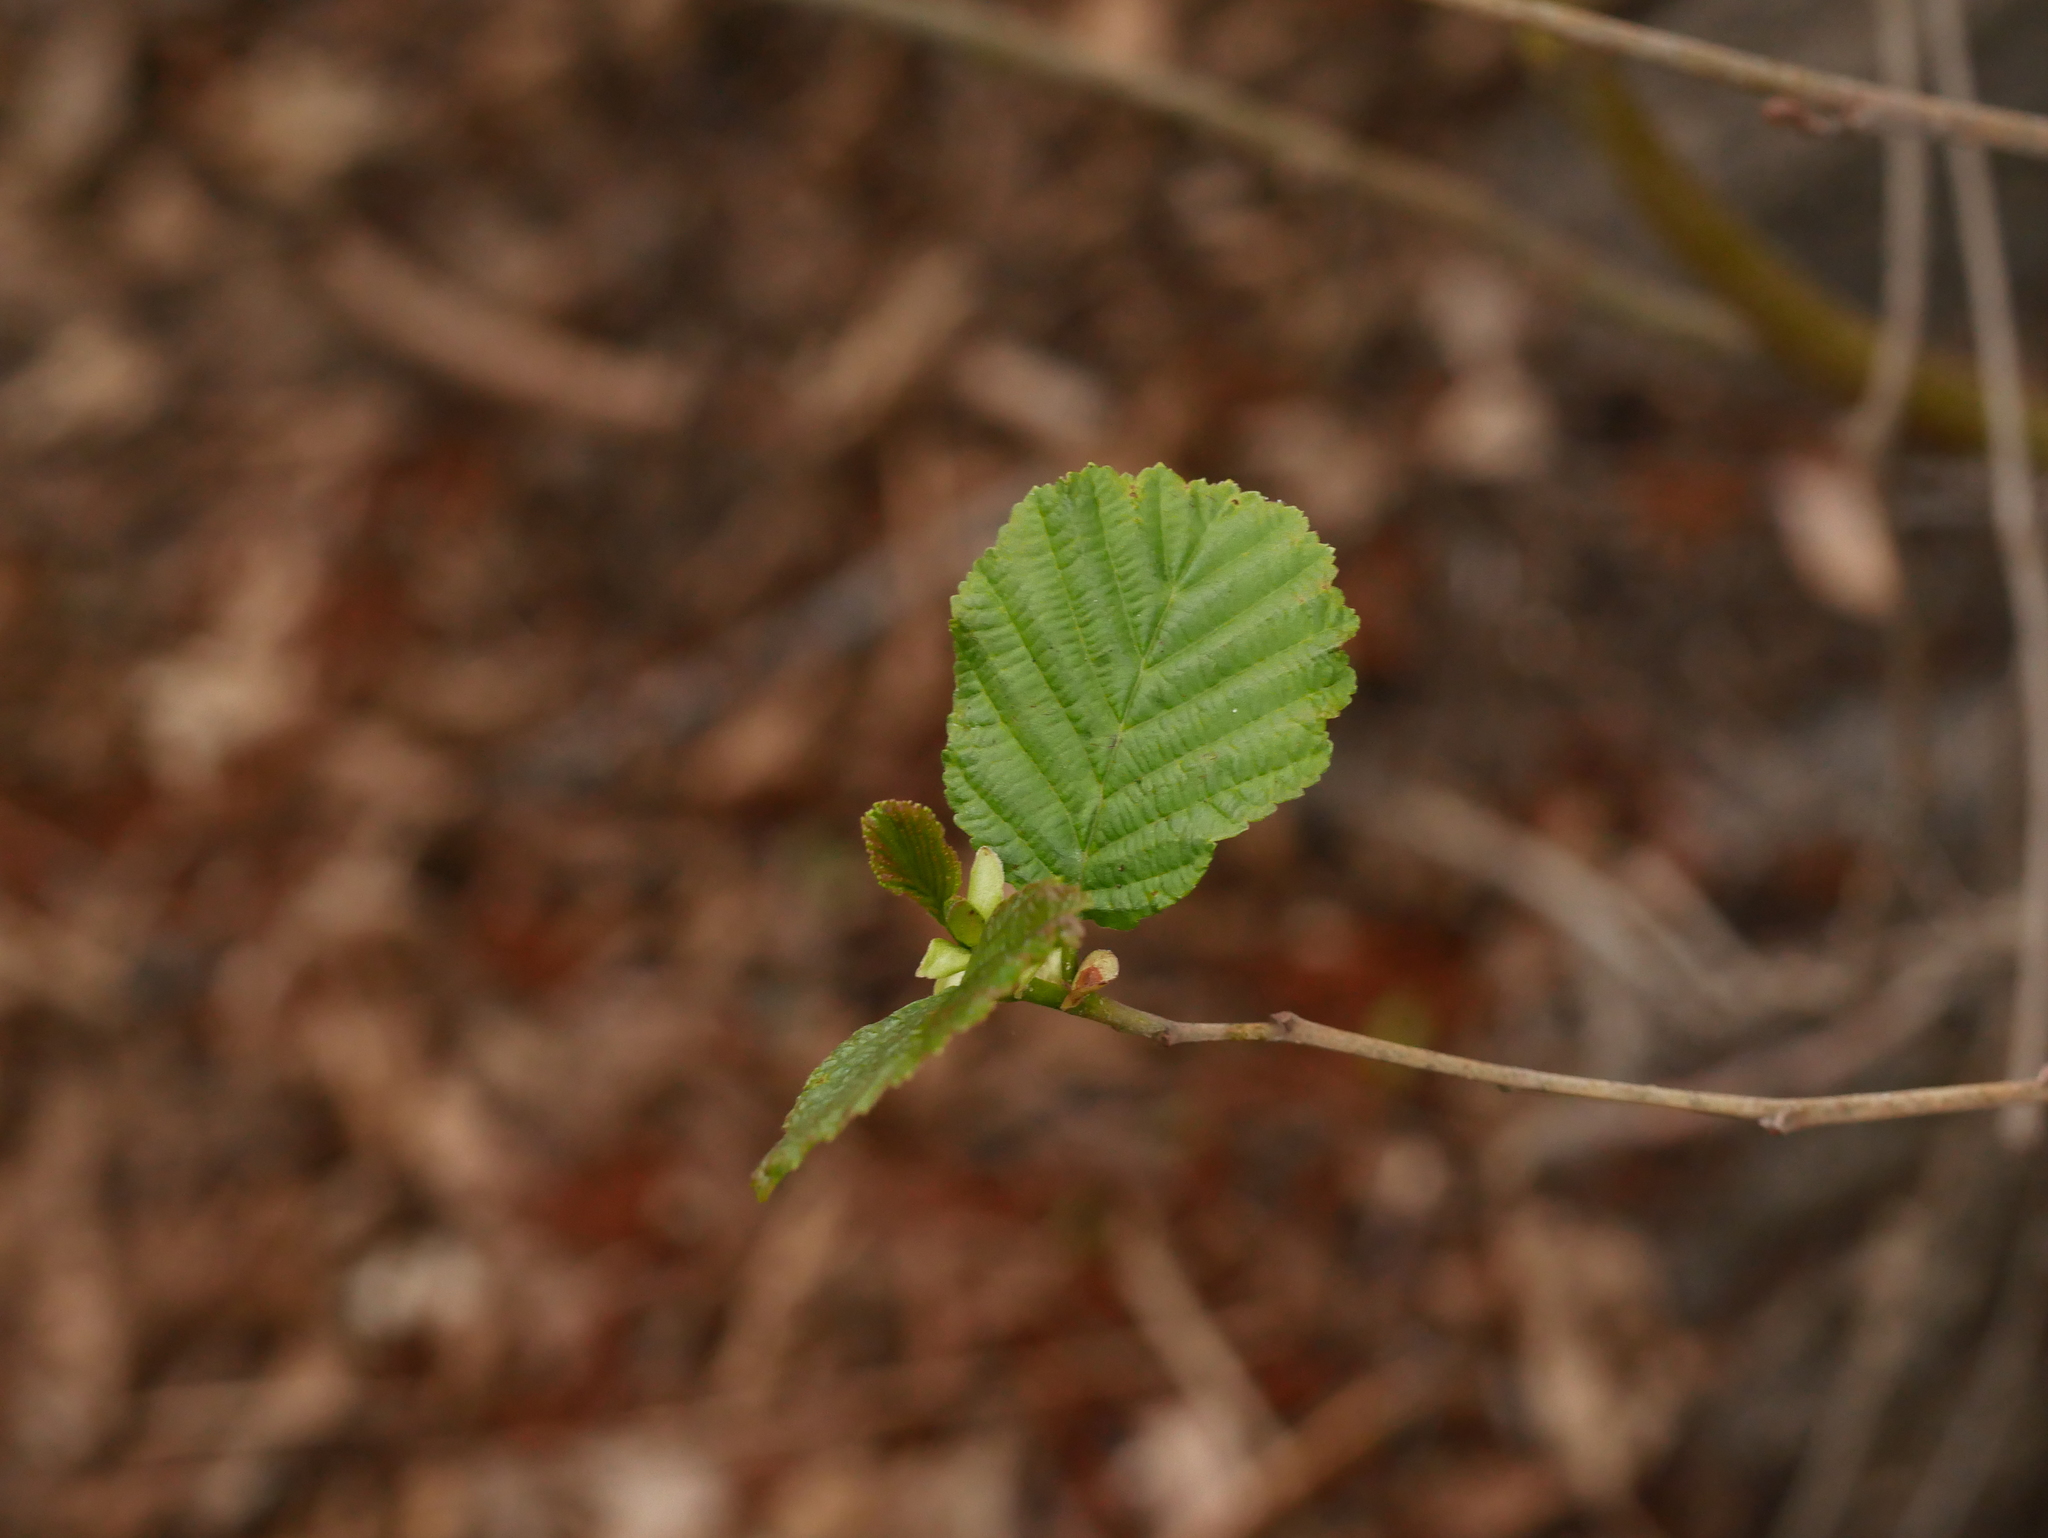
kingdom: Plantae
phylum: Tracheophyta
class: Magnoliopsida
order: Fagales
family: Betulaceae
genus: Alnus
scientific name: Alnus glutinosa
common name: Black alder
